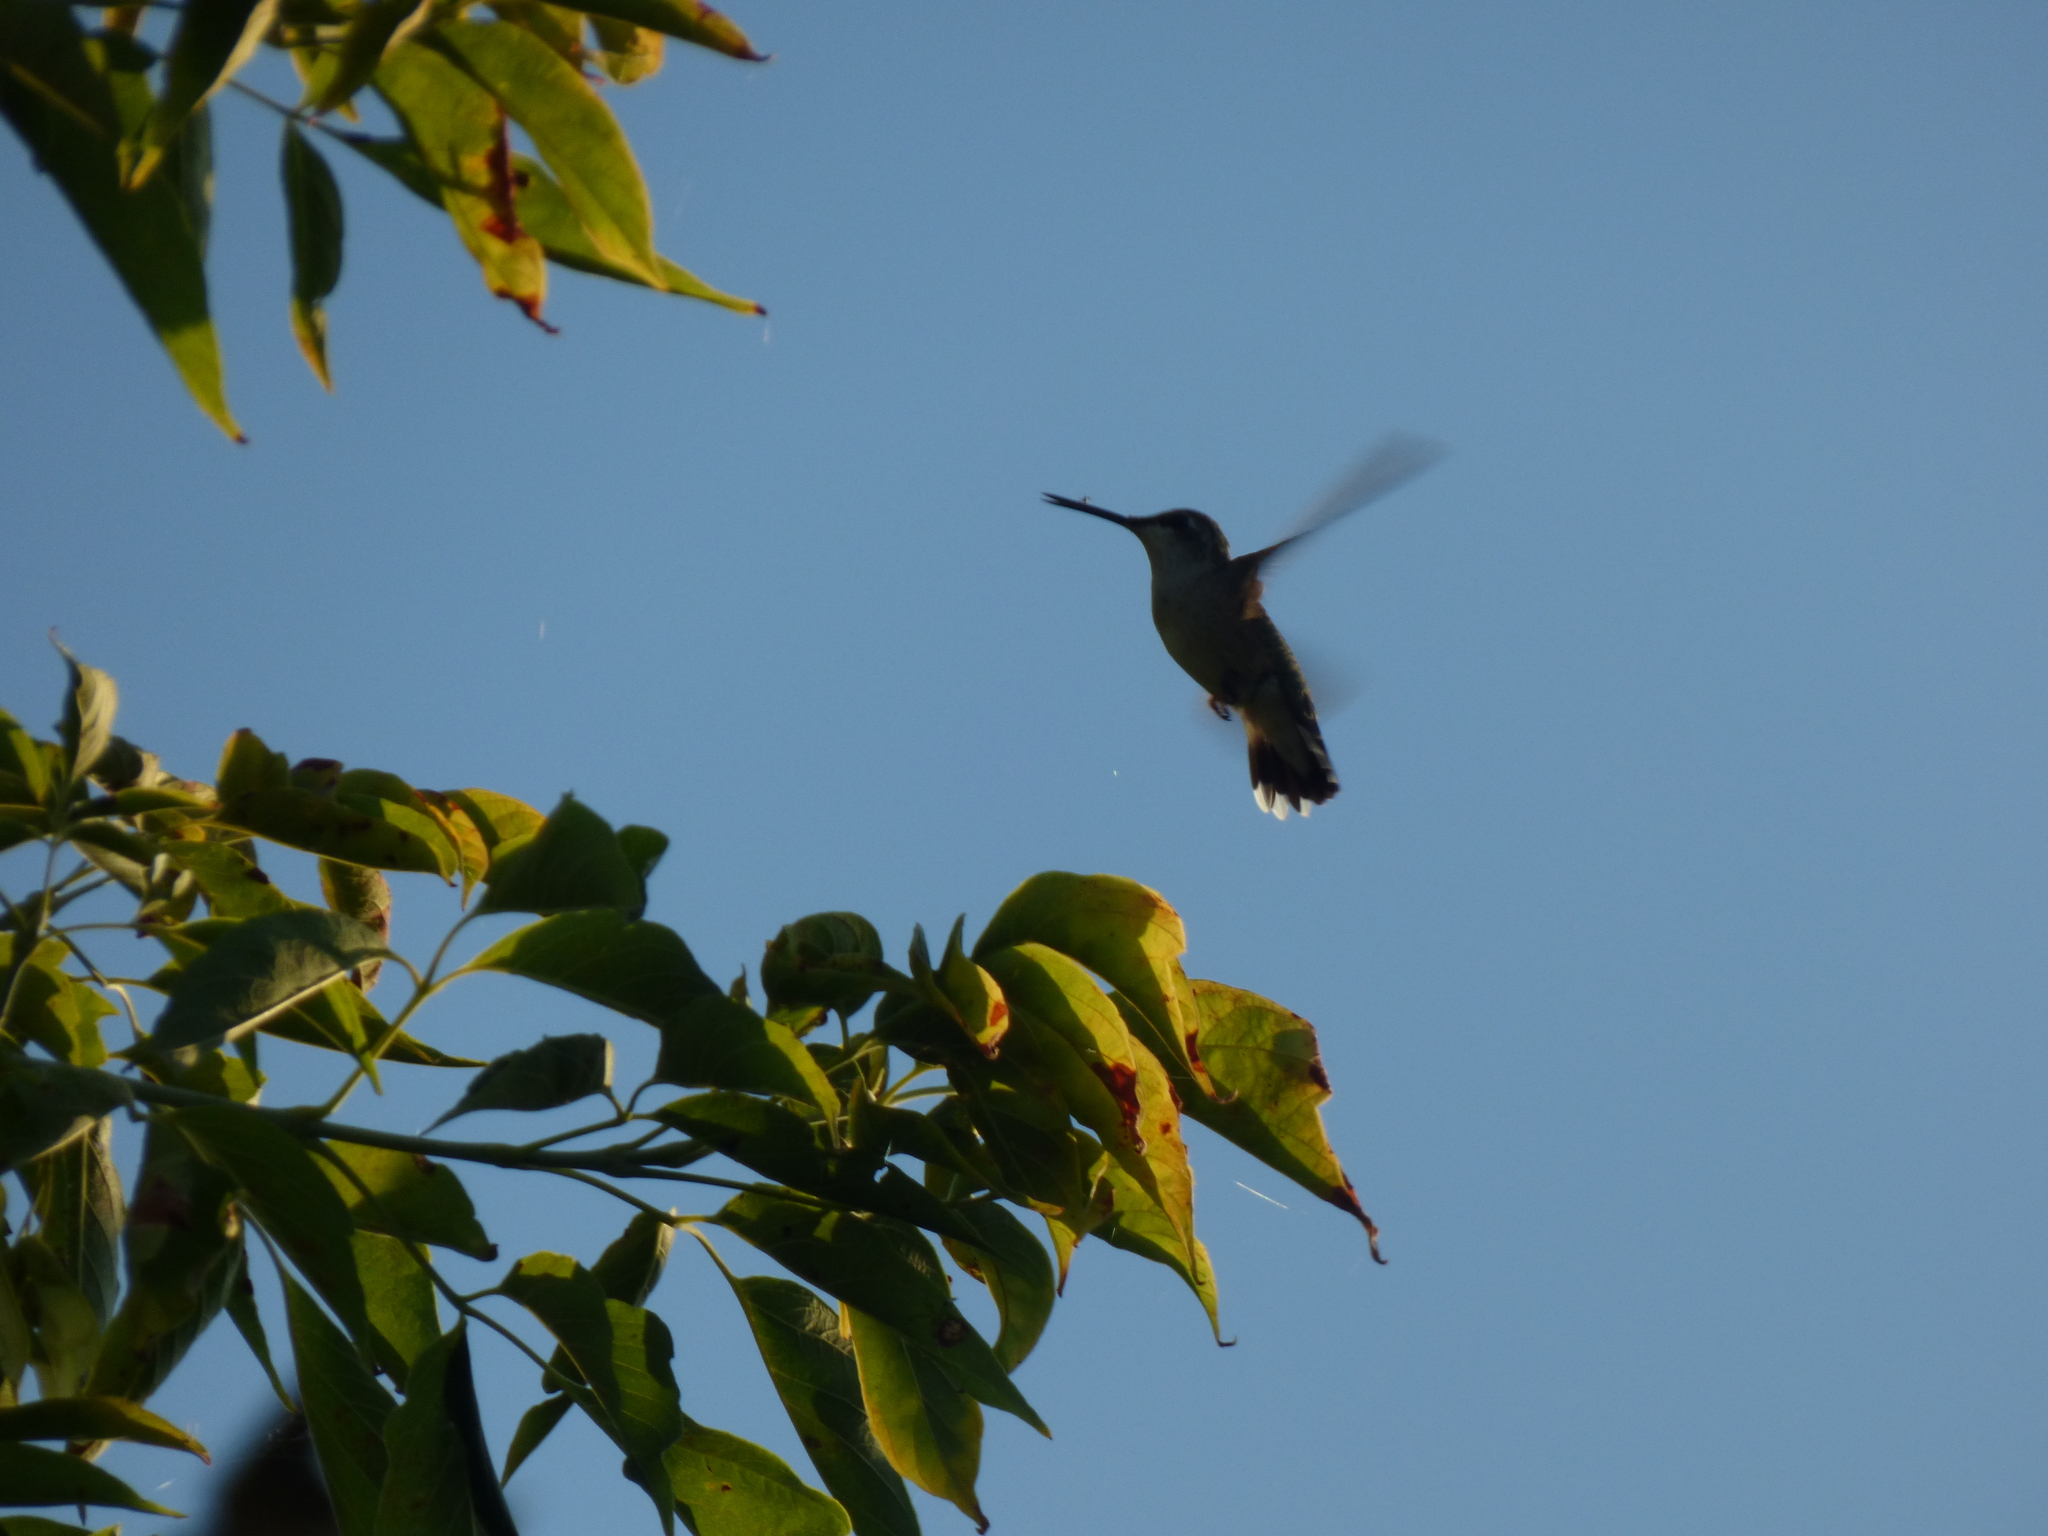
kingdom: Animalia
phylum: Chordata
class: Aves
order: Apodiformes
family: Trochilidae
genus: Archilochus
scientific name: Archilochus colubris
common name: Ruby-throated hummingbird
